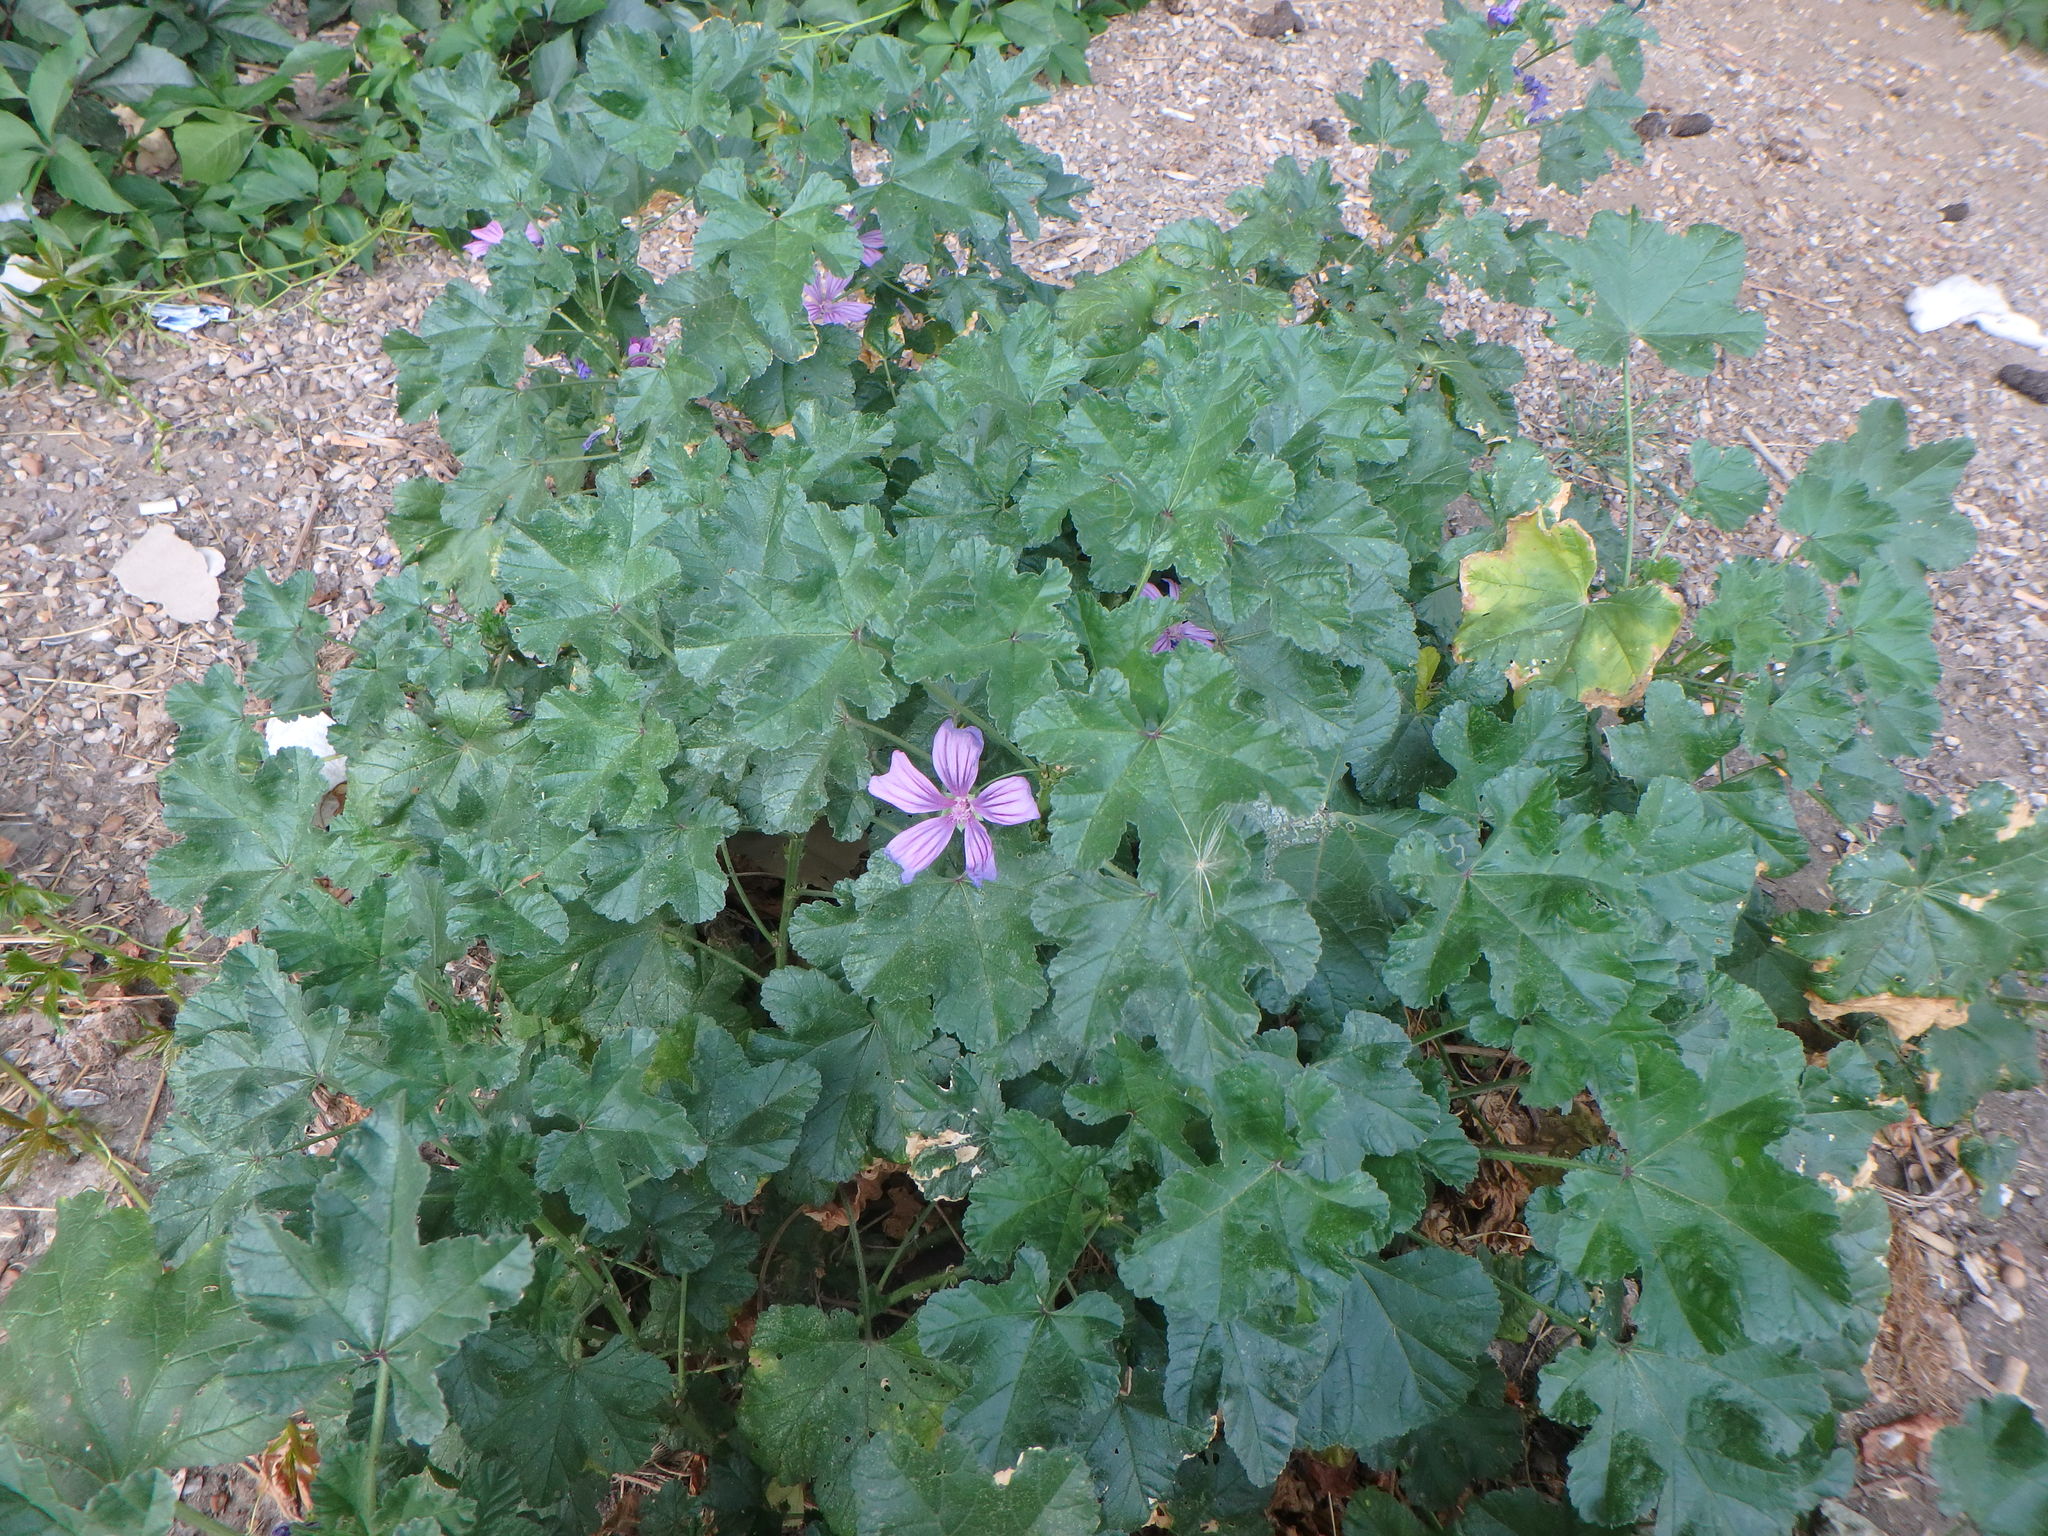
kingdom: Plantae
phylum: Tracheophyta
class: Magnoliopsida
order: Malvales
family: Malvaceae
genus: Malva
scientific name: Malva sylvestris
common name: Common mallow
